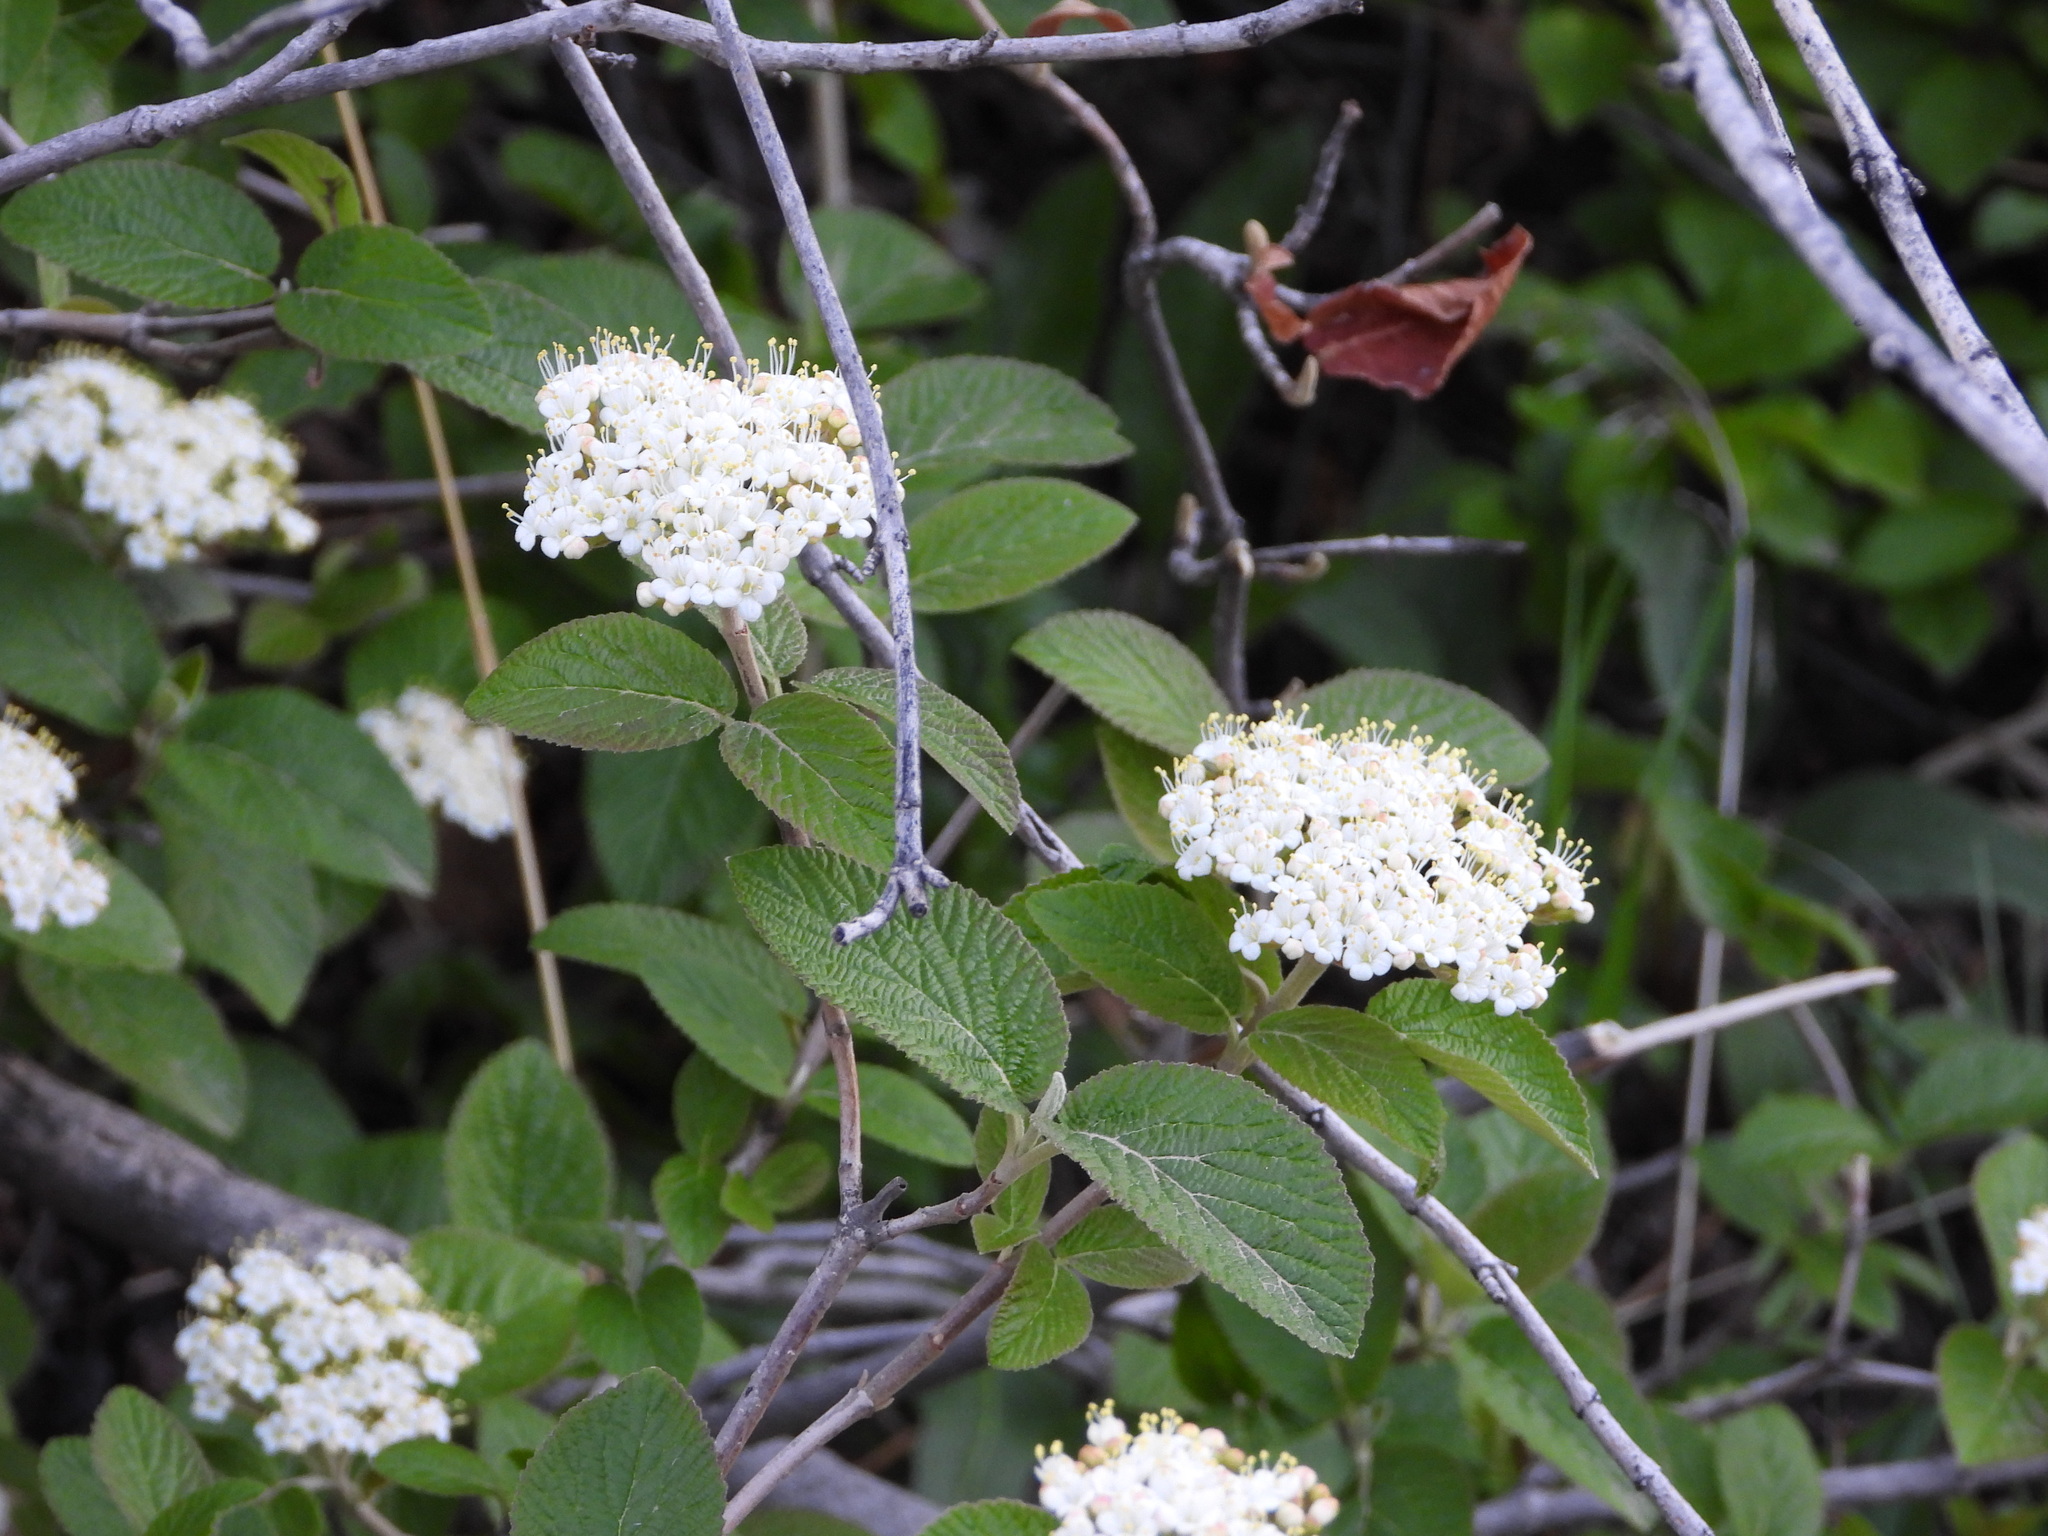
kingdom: Plantae
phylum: Tracheophyta
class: Magnoliopsida
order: Dipsacales
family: Viburnaceae
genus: Viburnum
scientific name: Viburnum lantana
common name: Wayfaring tree
